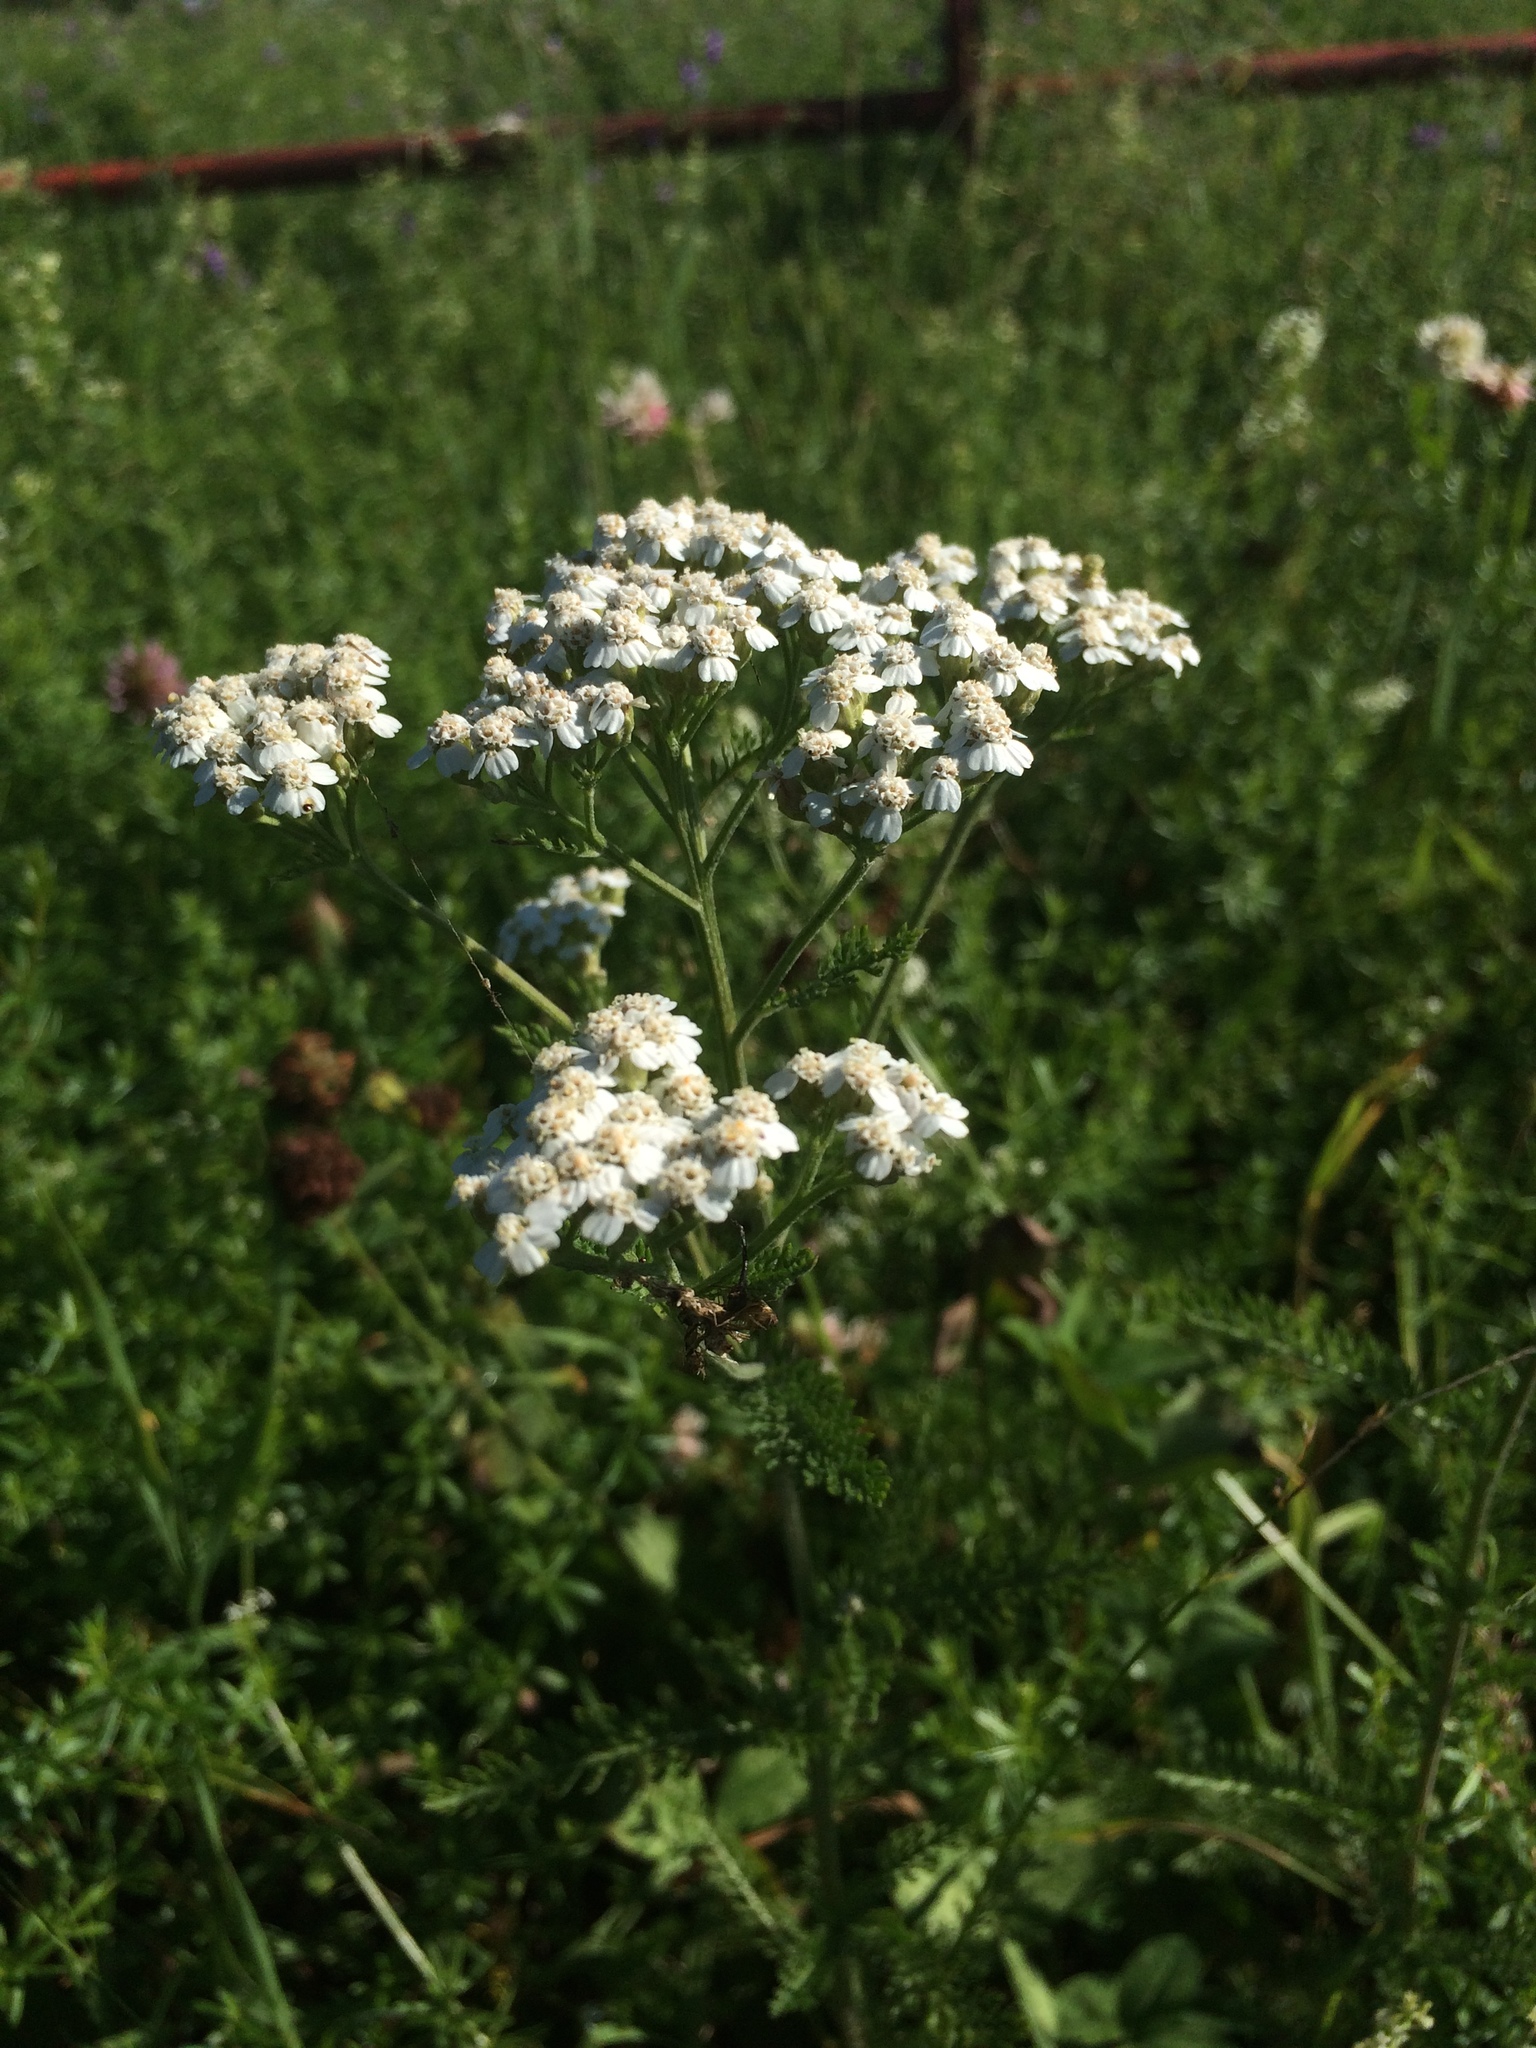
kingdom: Plantae
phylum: Tracheophyta
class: Magnoliopsida
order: Asterales
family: Asteraceae
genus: Achillea
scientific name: Achillea millefolium
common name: Yarrow
